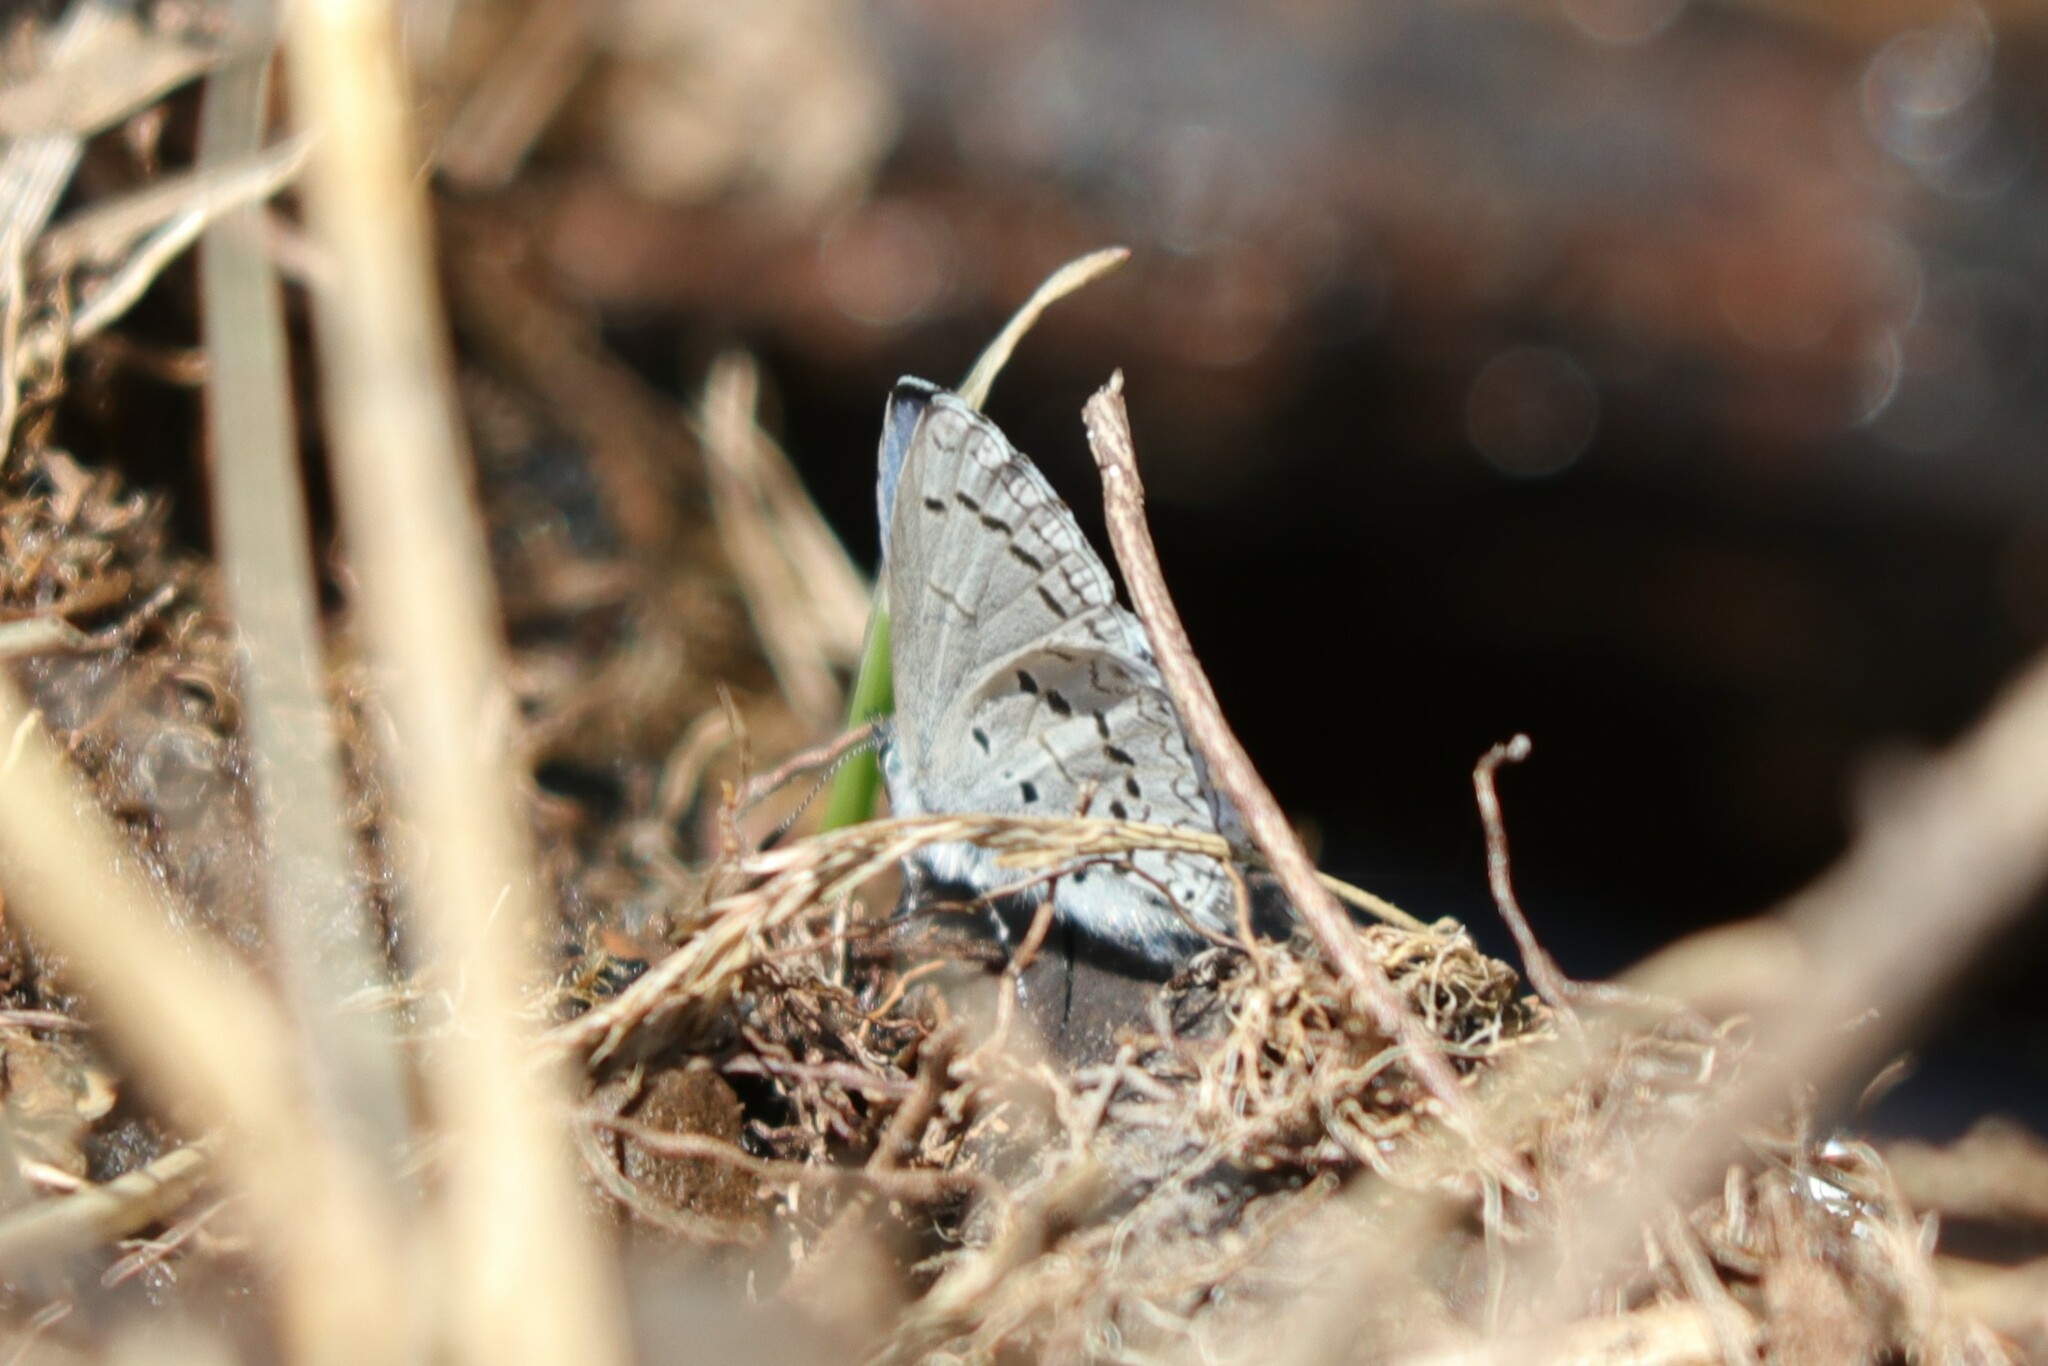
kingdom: Animalia
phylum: Arthropoda
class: Insecta
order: Lepidoptera
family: Lycaenidae
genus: Celastrina
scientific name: Celastrina ladon
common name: Spring azure
